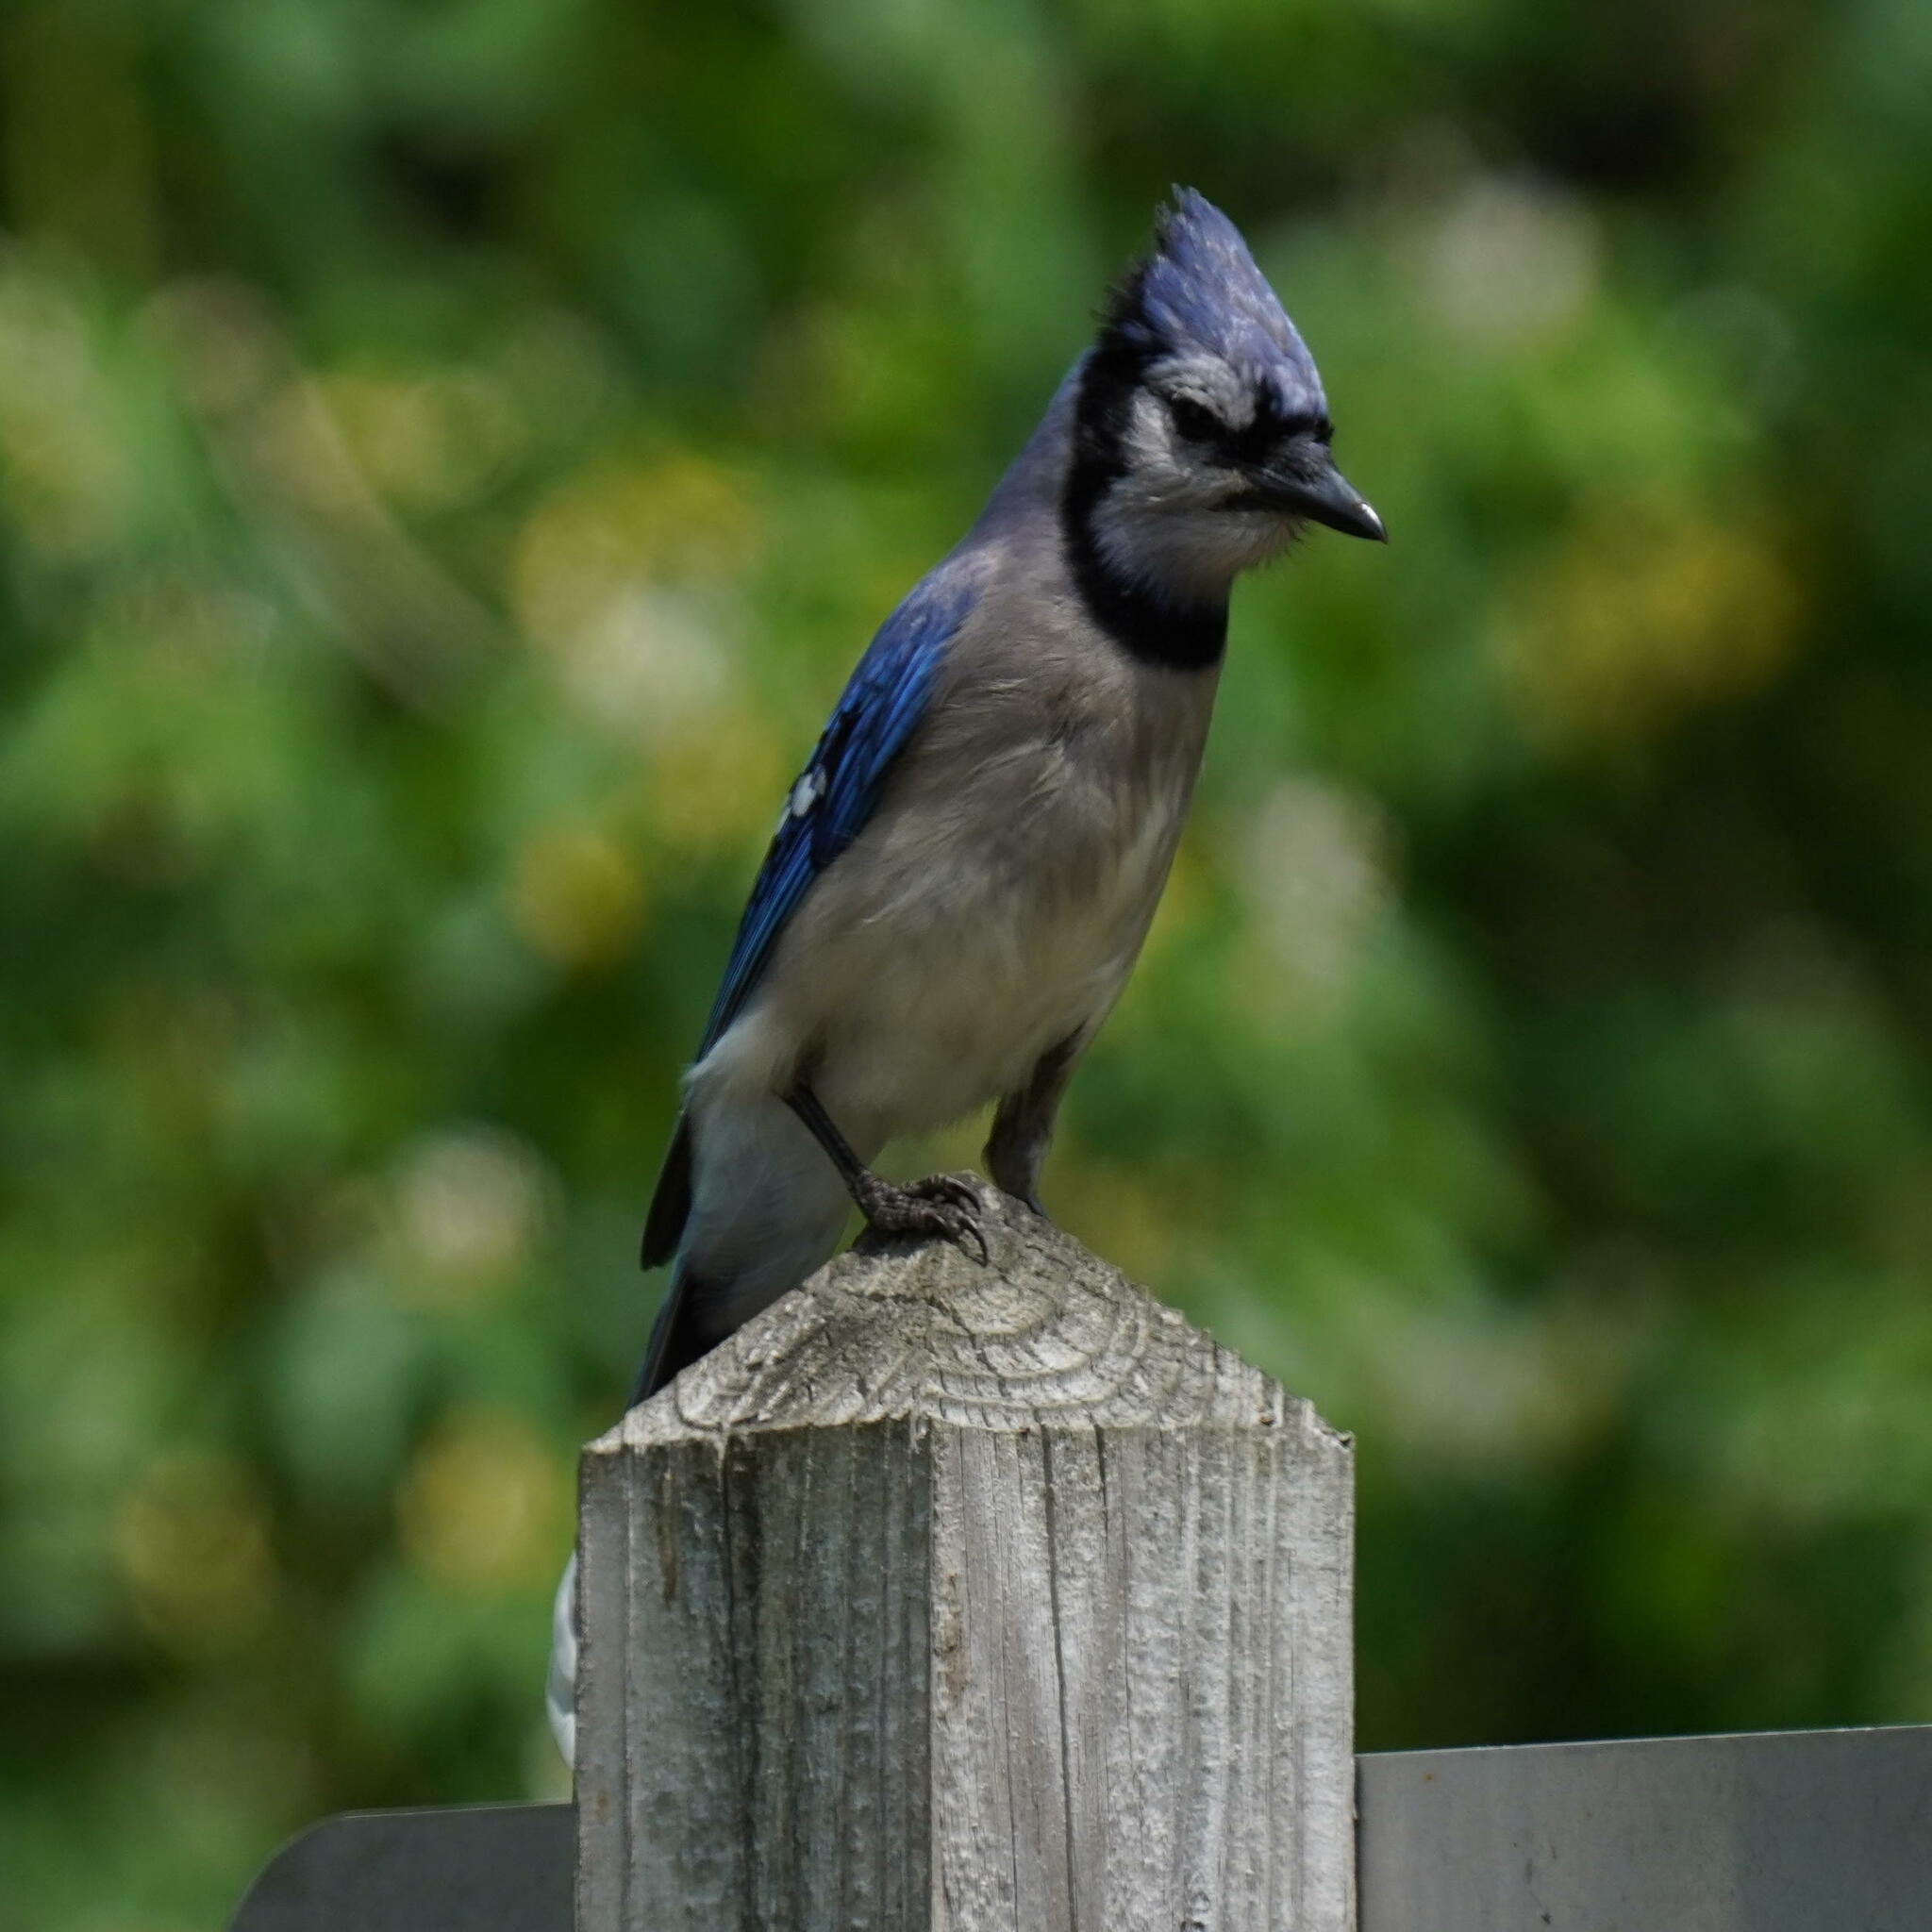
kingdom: Animalia
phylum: Chordata
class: Aves
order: Passeriformes
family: Corvidae
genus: Cyanocitta
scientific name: Cyanocitta cristata
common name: Blue jay
